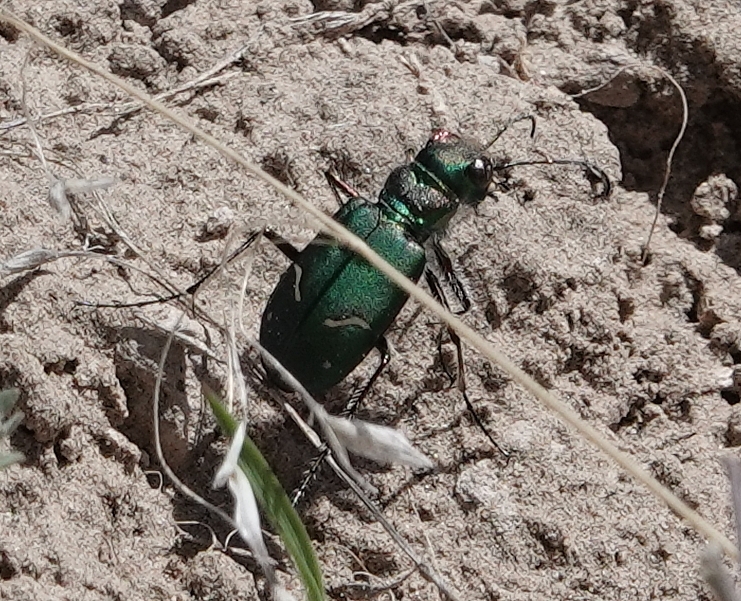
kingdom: Animalia
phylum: Arthropoda
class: Insecta
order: Coleoptera
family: Carabidae
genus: Cicindela
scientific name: Cicindela purpurea
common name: Cow path tiger beetle
